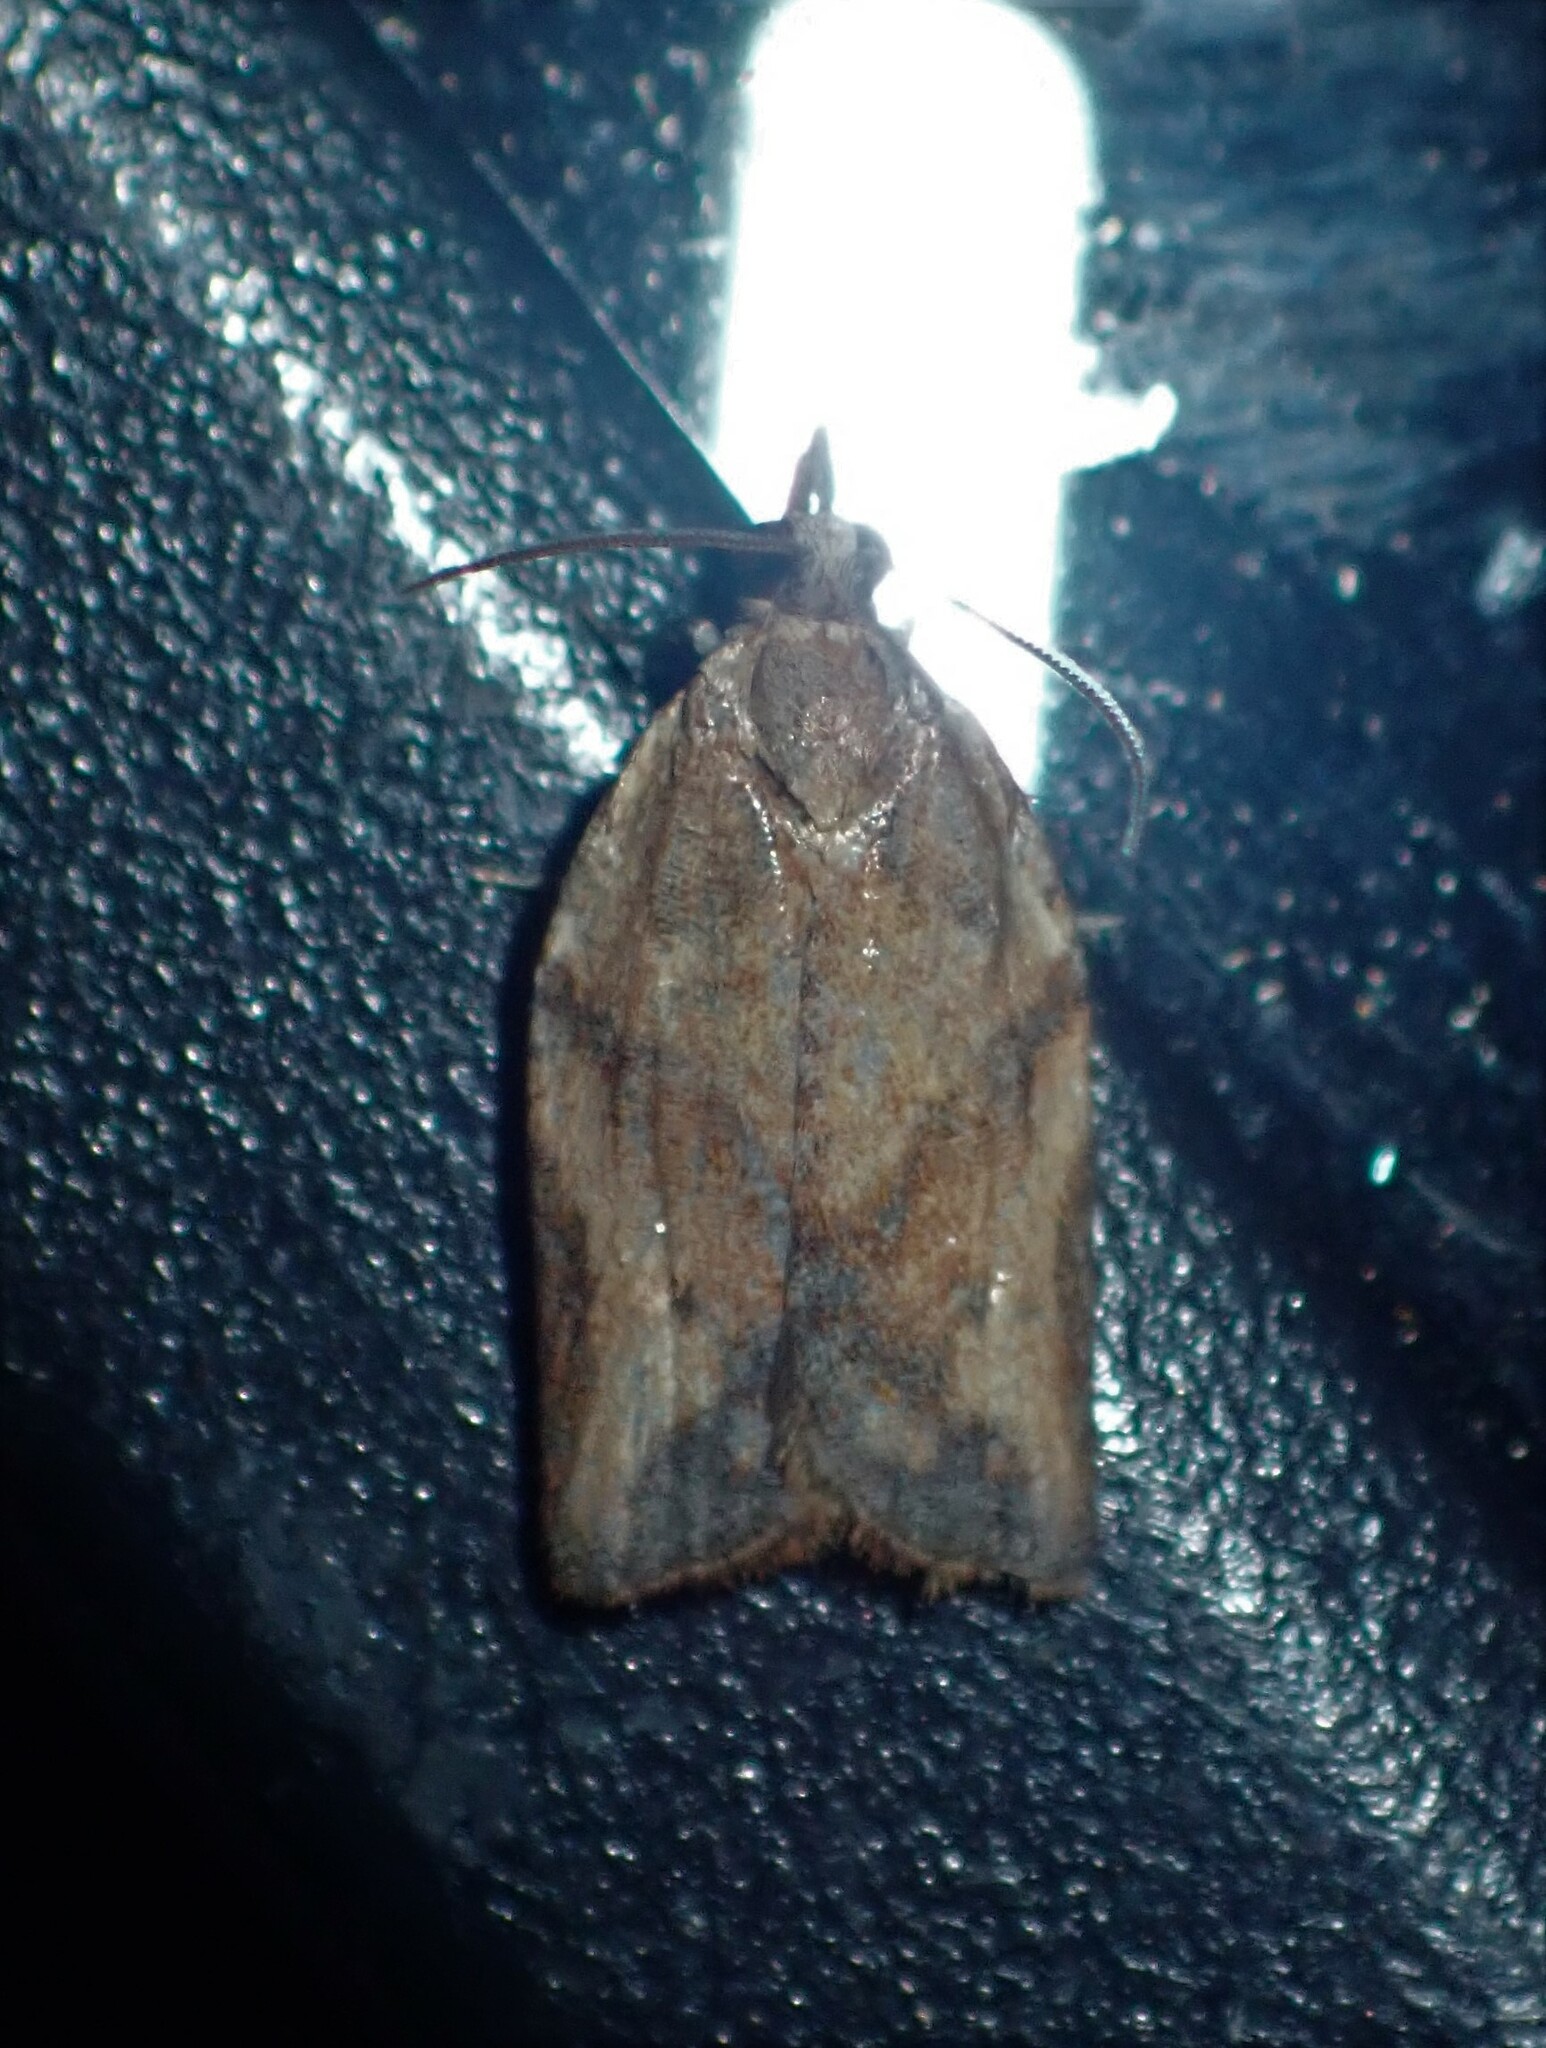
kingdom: Animalia
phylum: Arthropoda
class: Insecta
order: Lepidoptera
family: Tortricidae
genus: Epiphyas
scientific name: Epiphyas postvittana
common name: Light brown apple moth
